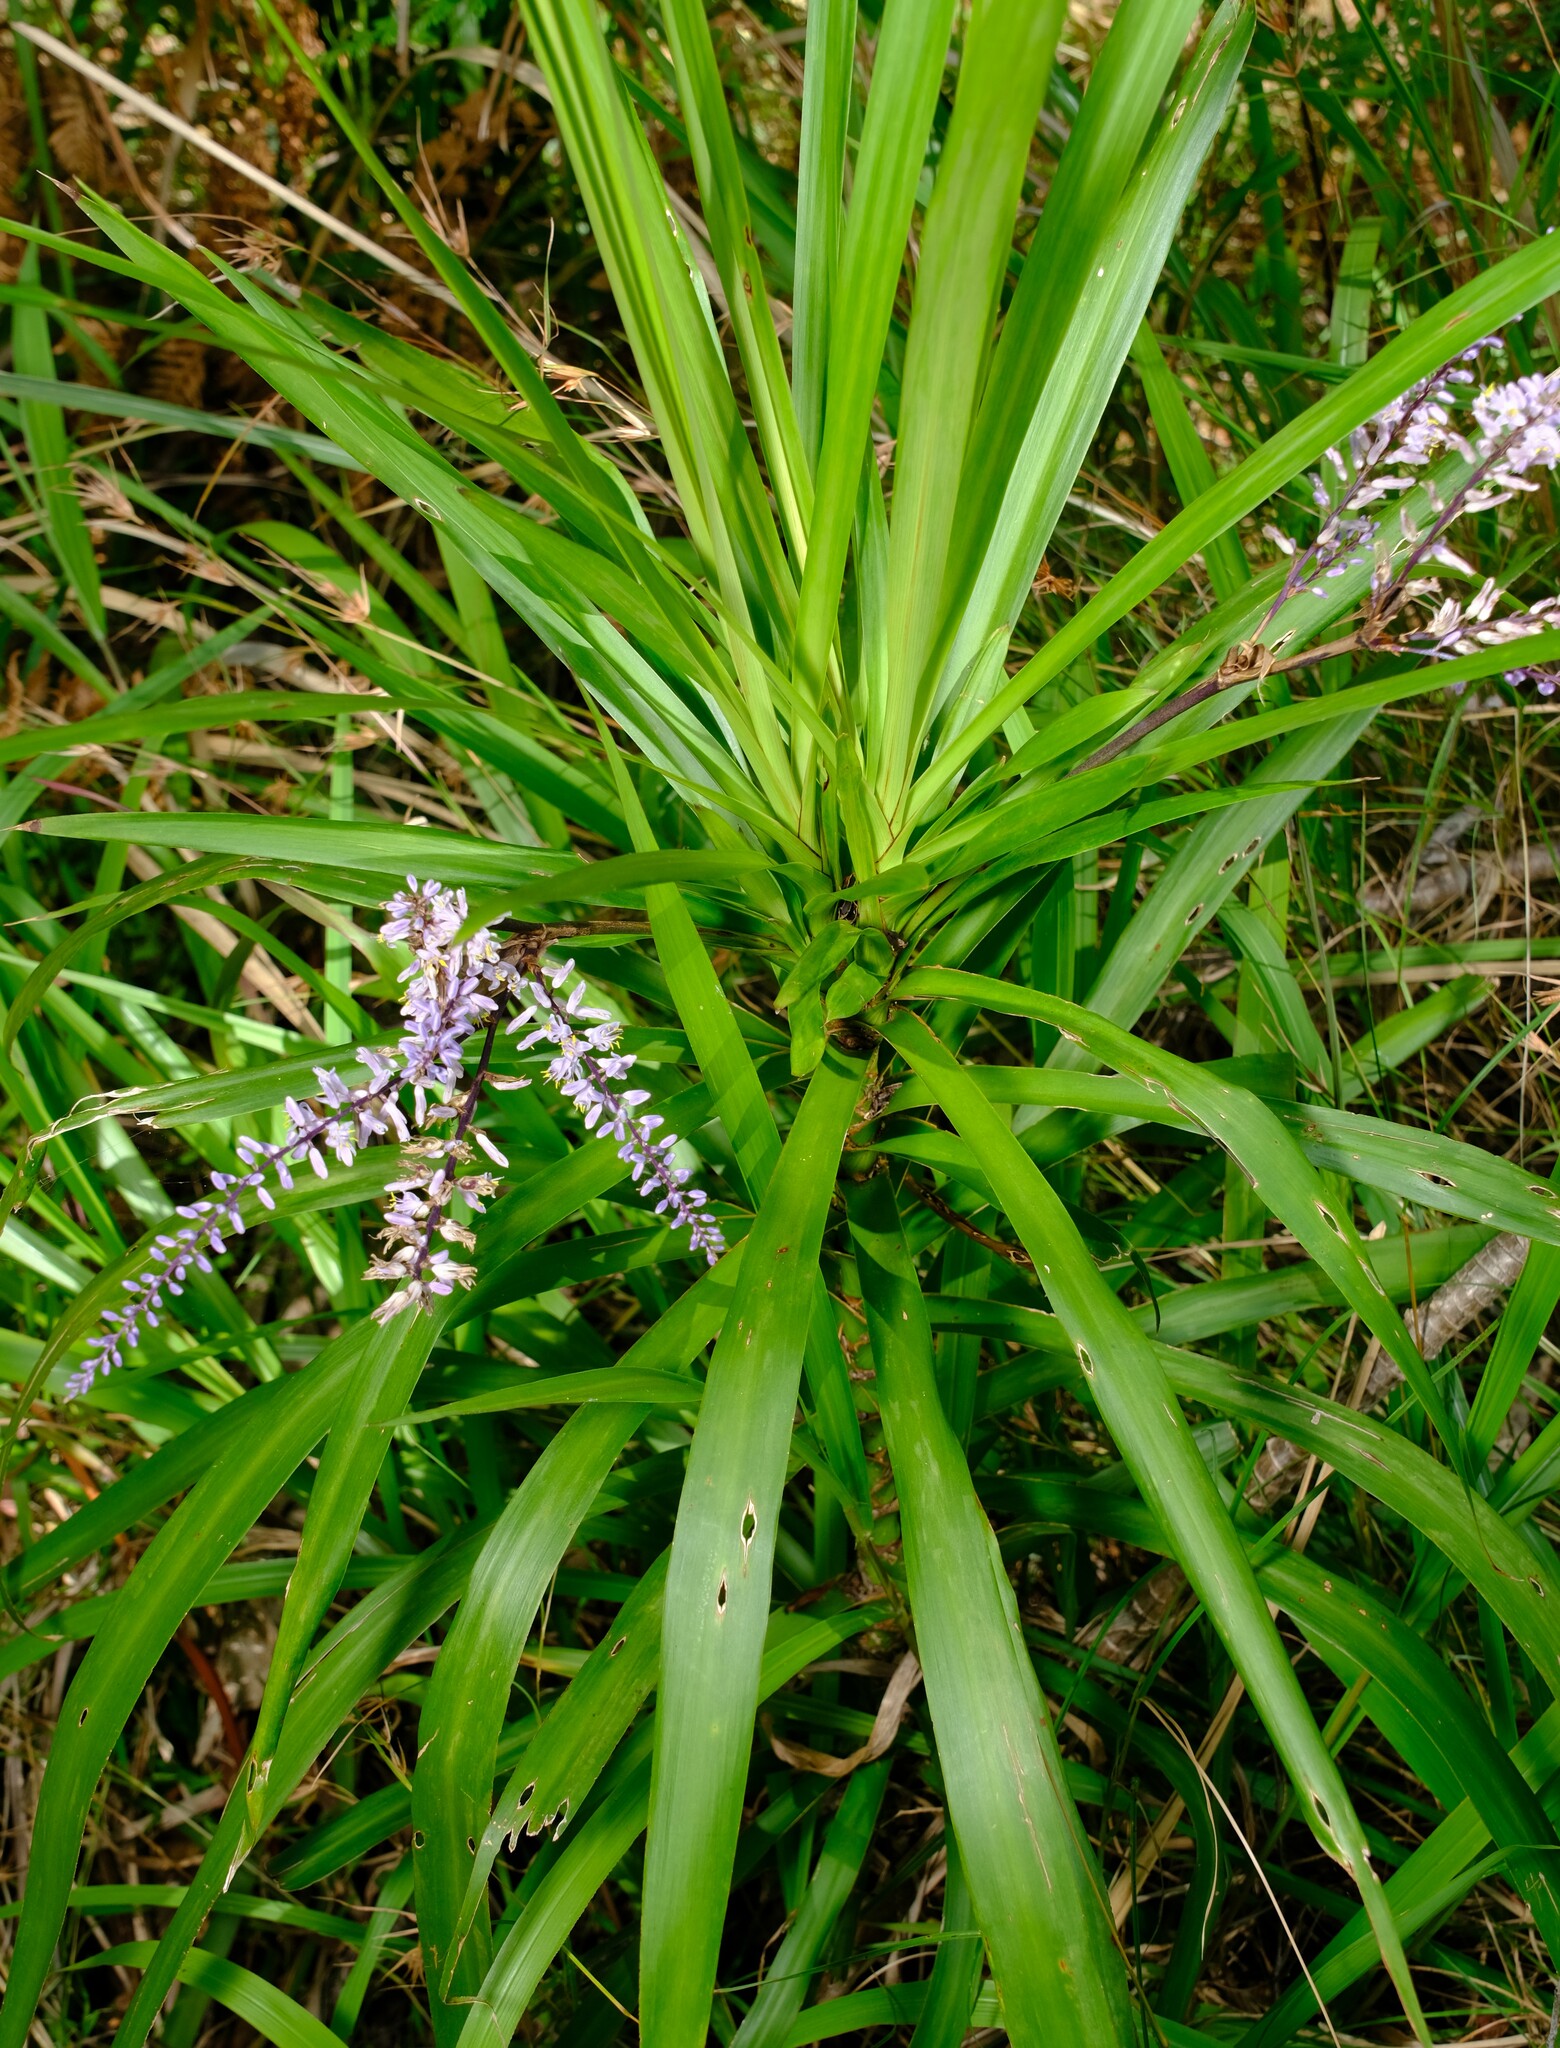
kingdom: Plantae
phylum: Tracheophyta
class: Liliopsida
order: Asparagales
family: Asparagaceae
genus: Cordyline
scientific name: Cordyline stricta
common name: Narrow-leaf palm-lily
